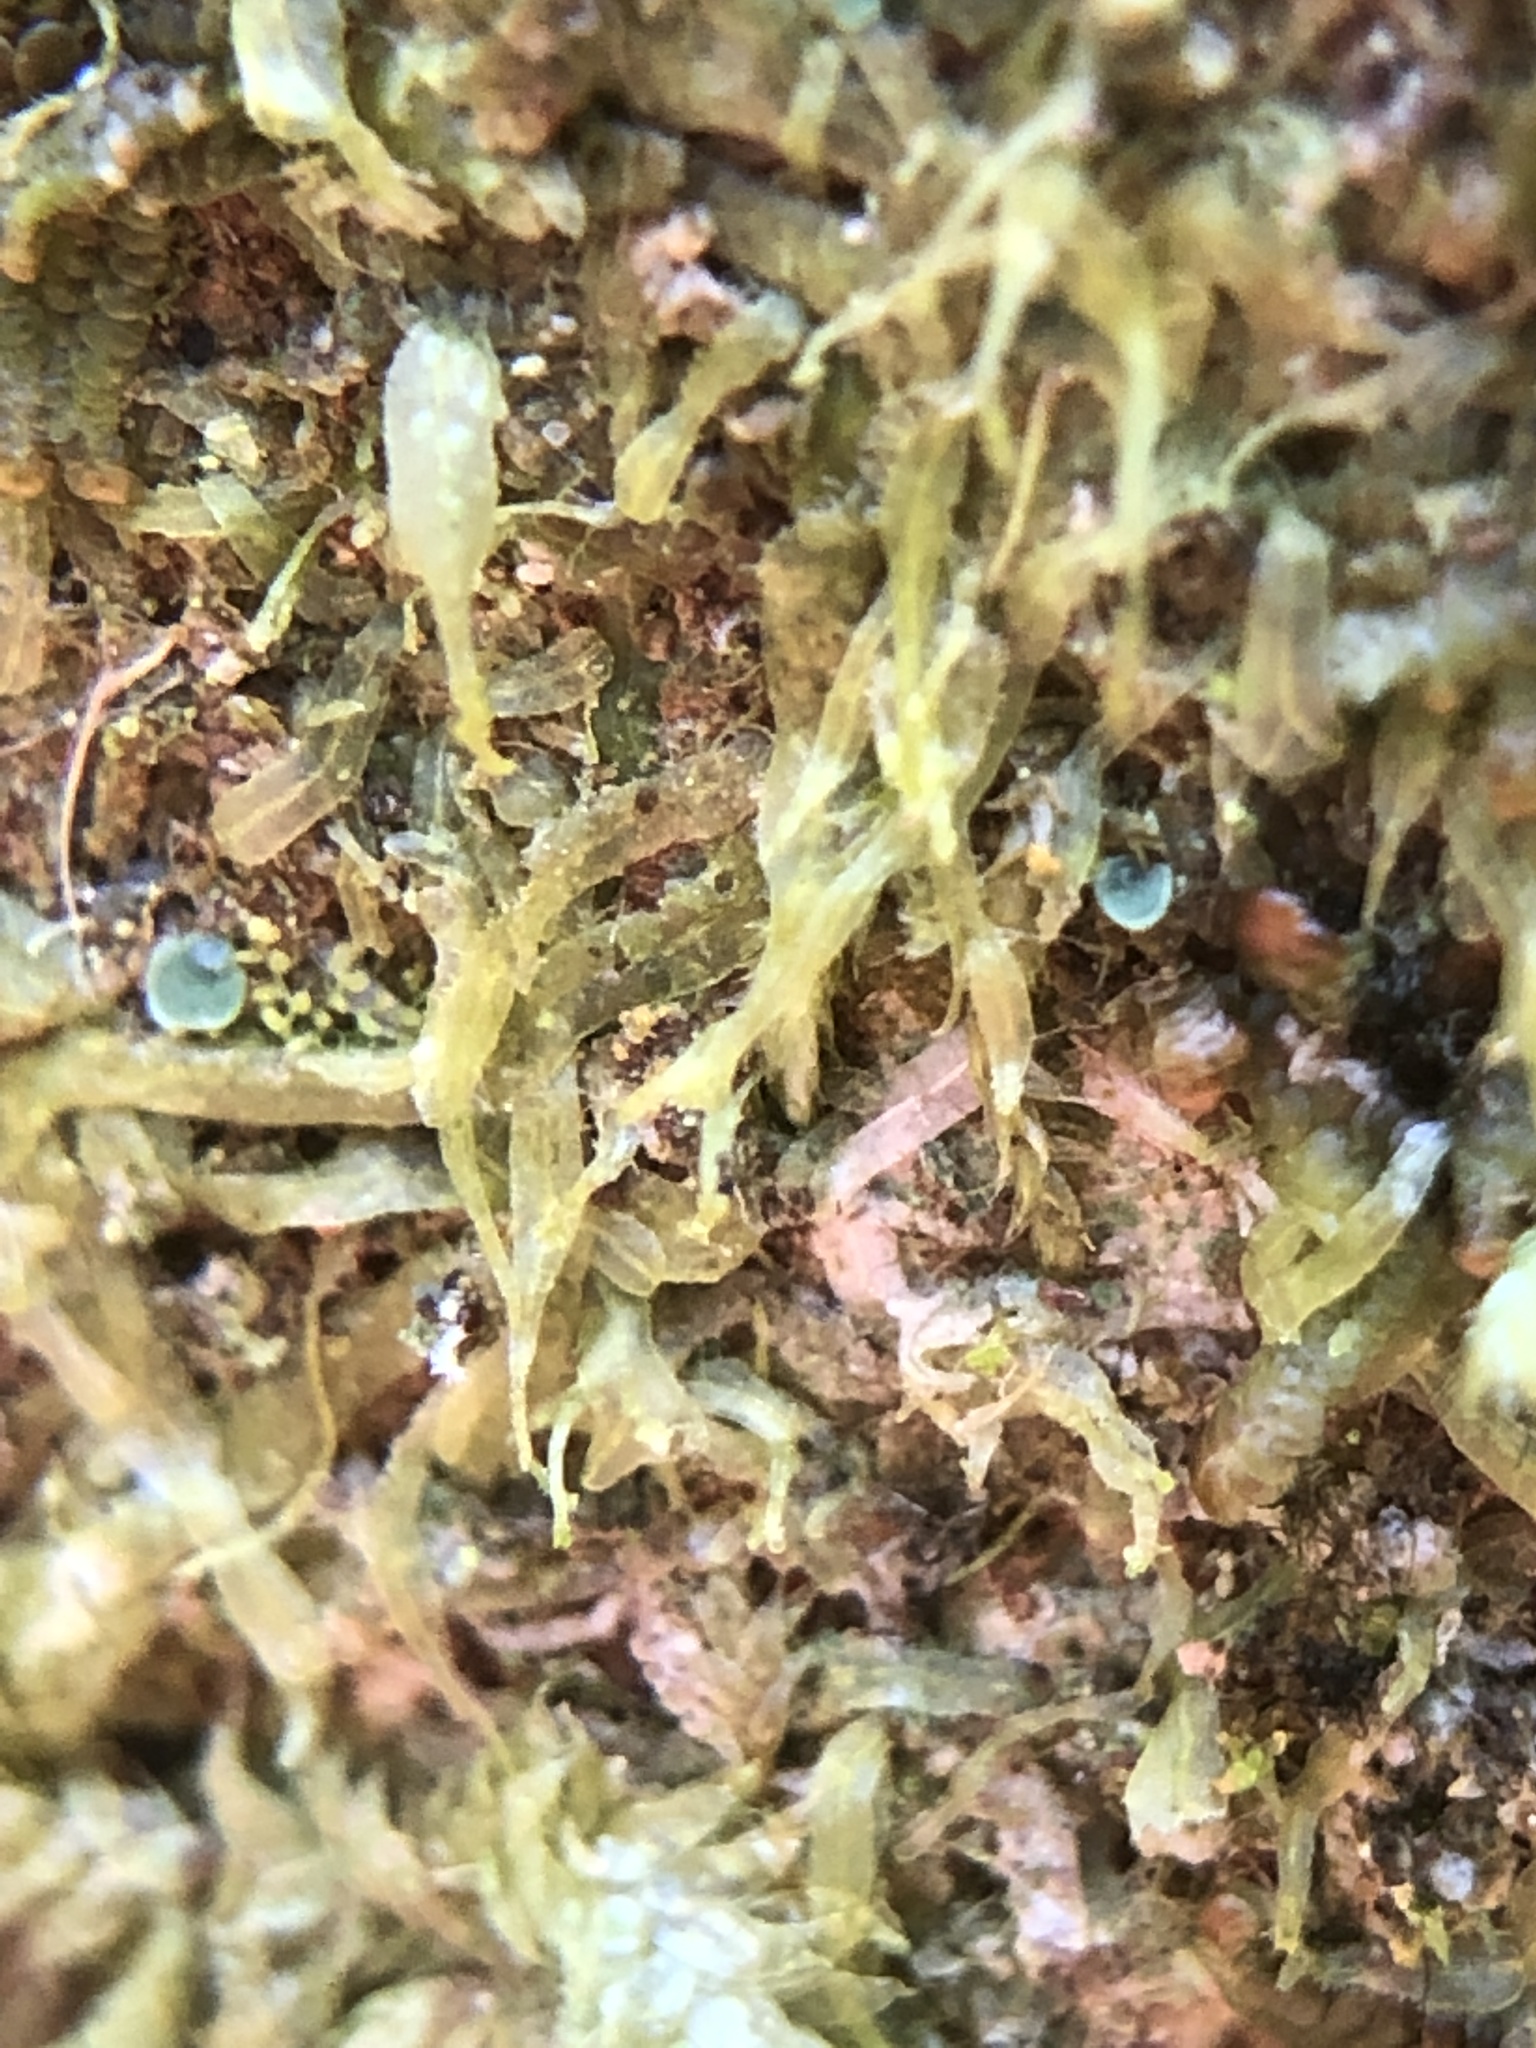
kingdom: Plantae
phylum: Marchantiophyta
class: Jungermanniopsida
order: Metzgeriales
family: Metzgeriaceae
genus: Metzgeria
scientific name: Metzgeria violacea
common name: Blueish veilwort
